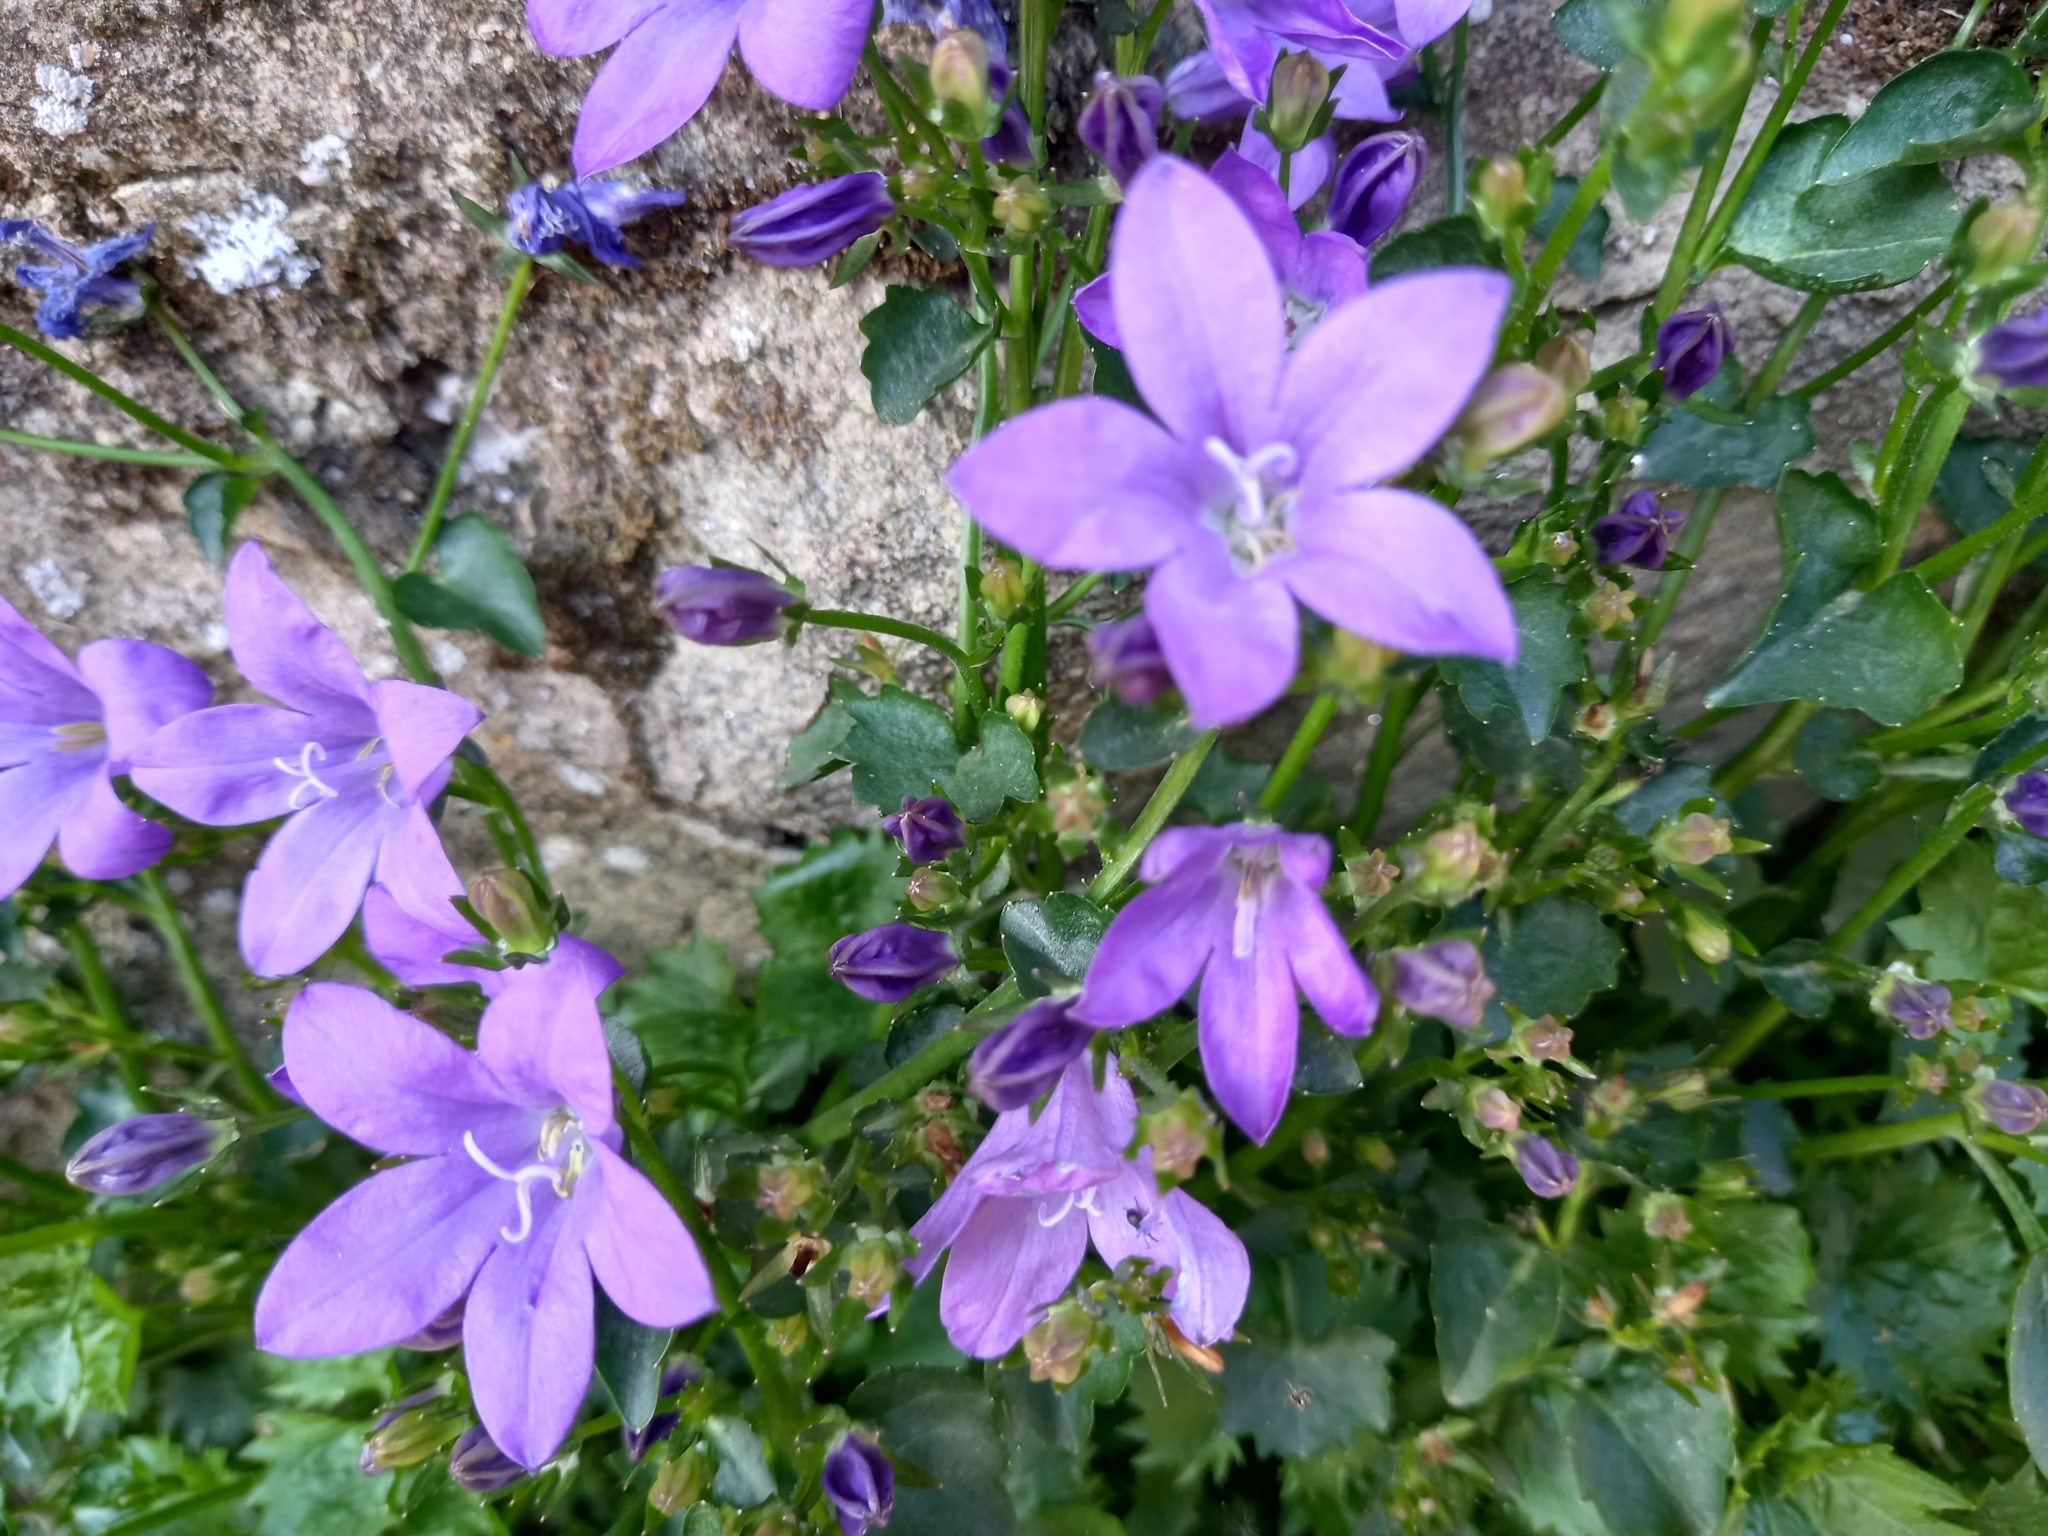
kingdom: Plantae
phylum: Tracheophyta
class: Magnoliopsida
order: Asterales
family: Campanulaceae
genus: Campanula
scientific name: Campanula portenschlagiana
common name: Adria bellflower
